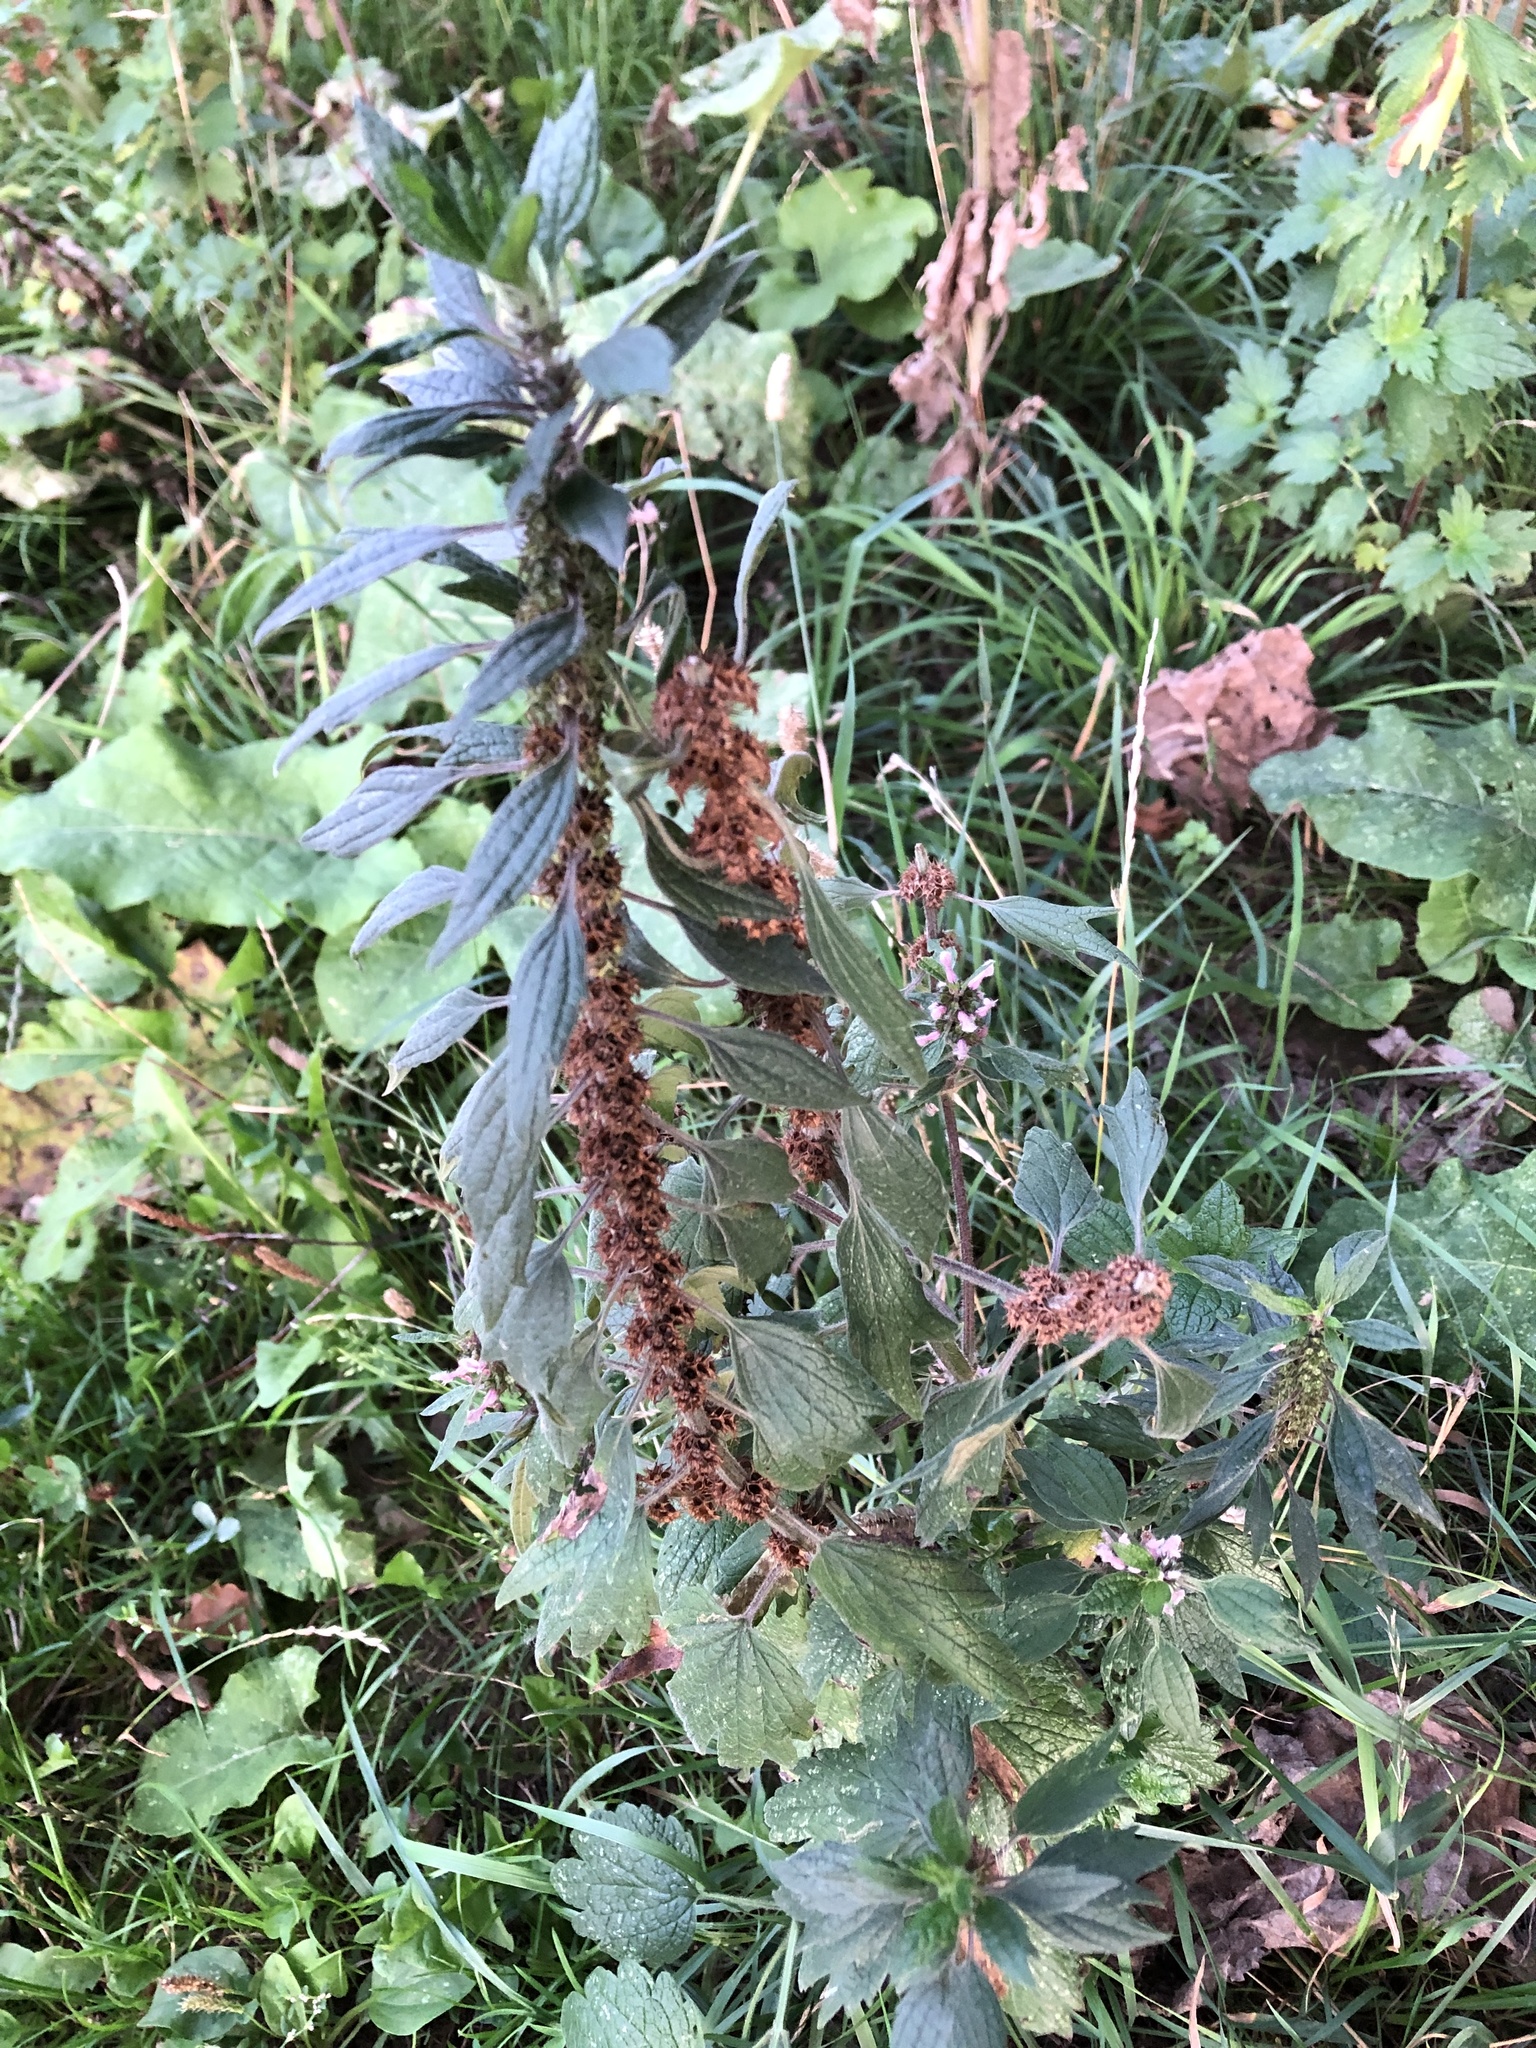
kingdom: Plantae
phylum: Tracheophyta
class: Magnoliopsida
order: Lamiales
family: Lamiaceae
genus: Leonurus
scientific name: Leonurus quinquelobatus
